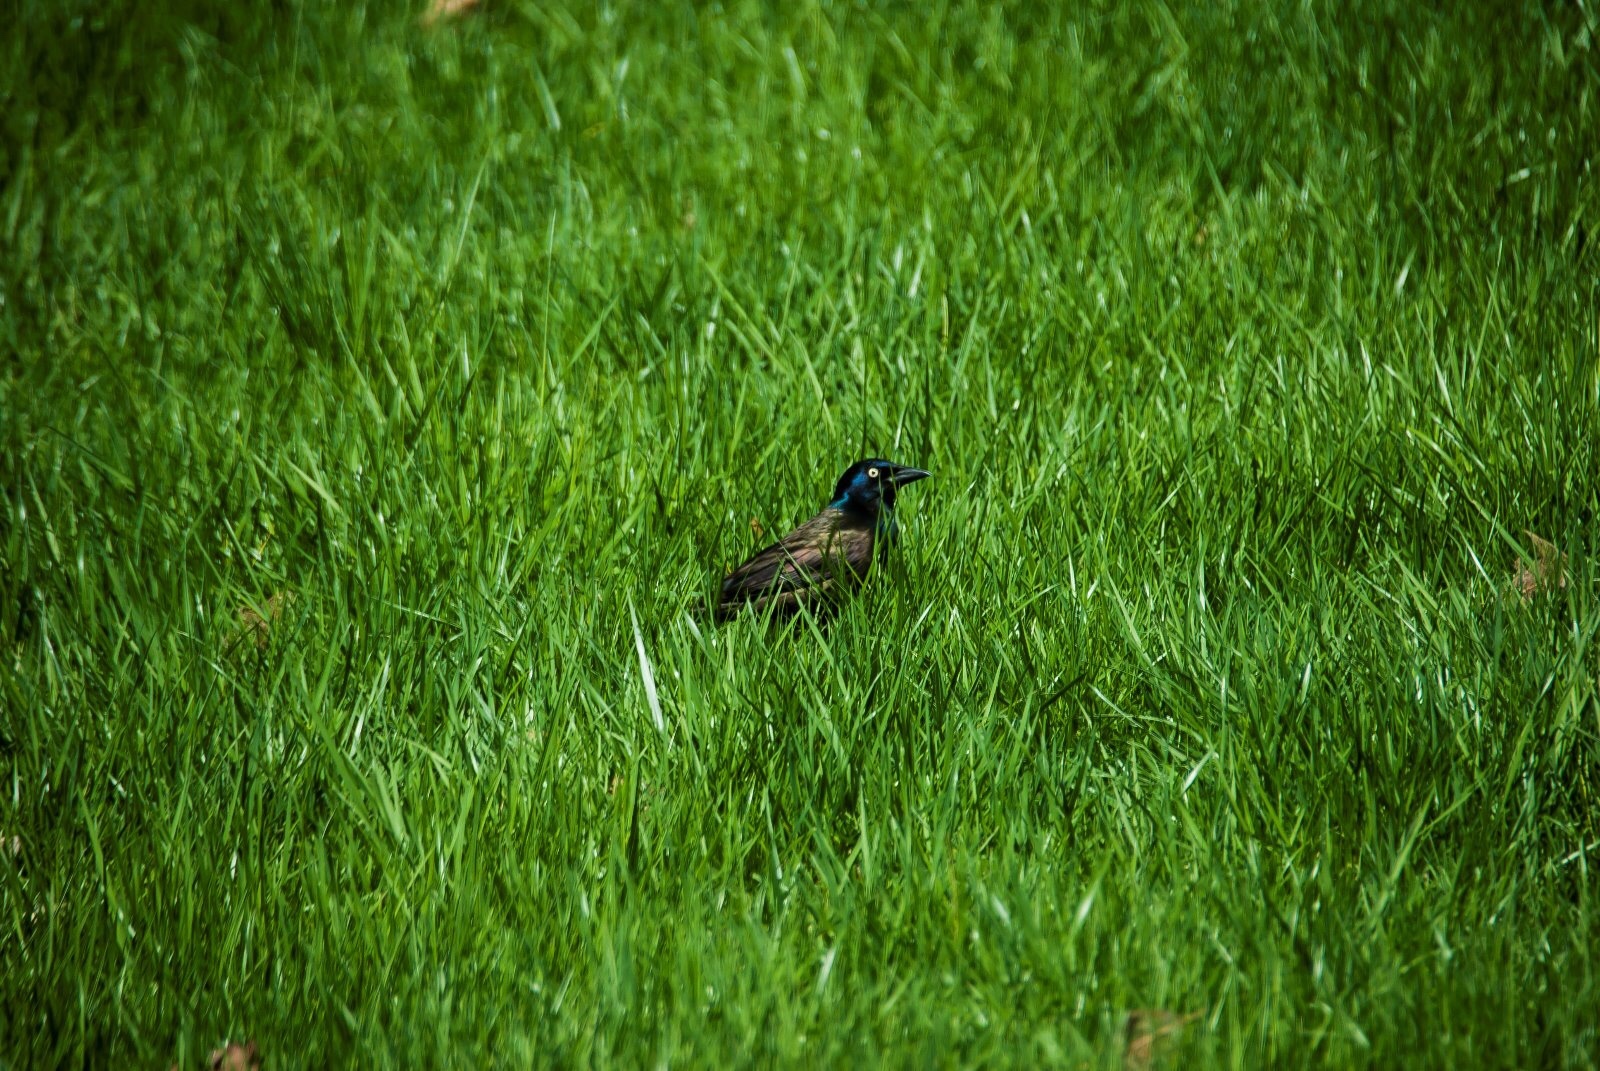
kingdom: Animalia
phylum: Chordata
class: Aves
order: Passeriformes
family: Icteridae
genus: Quiscalus
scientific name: Quiscalus quiscula
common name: Common grackle
